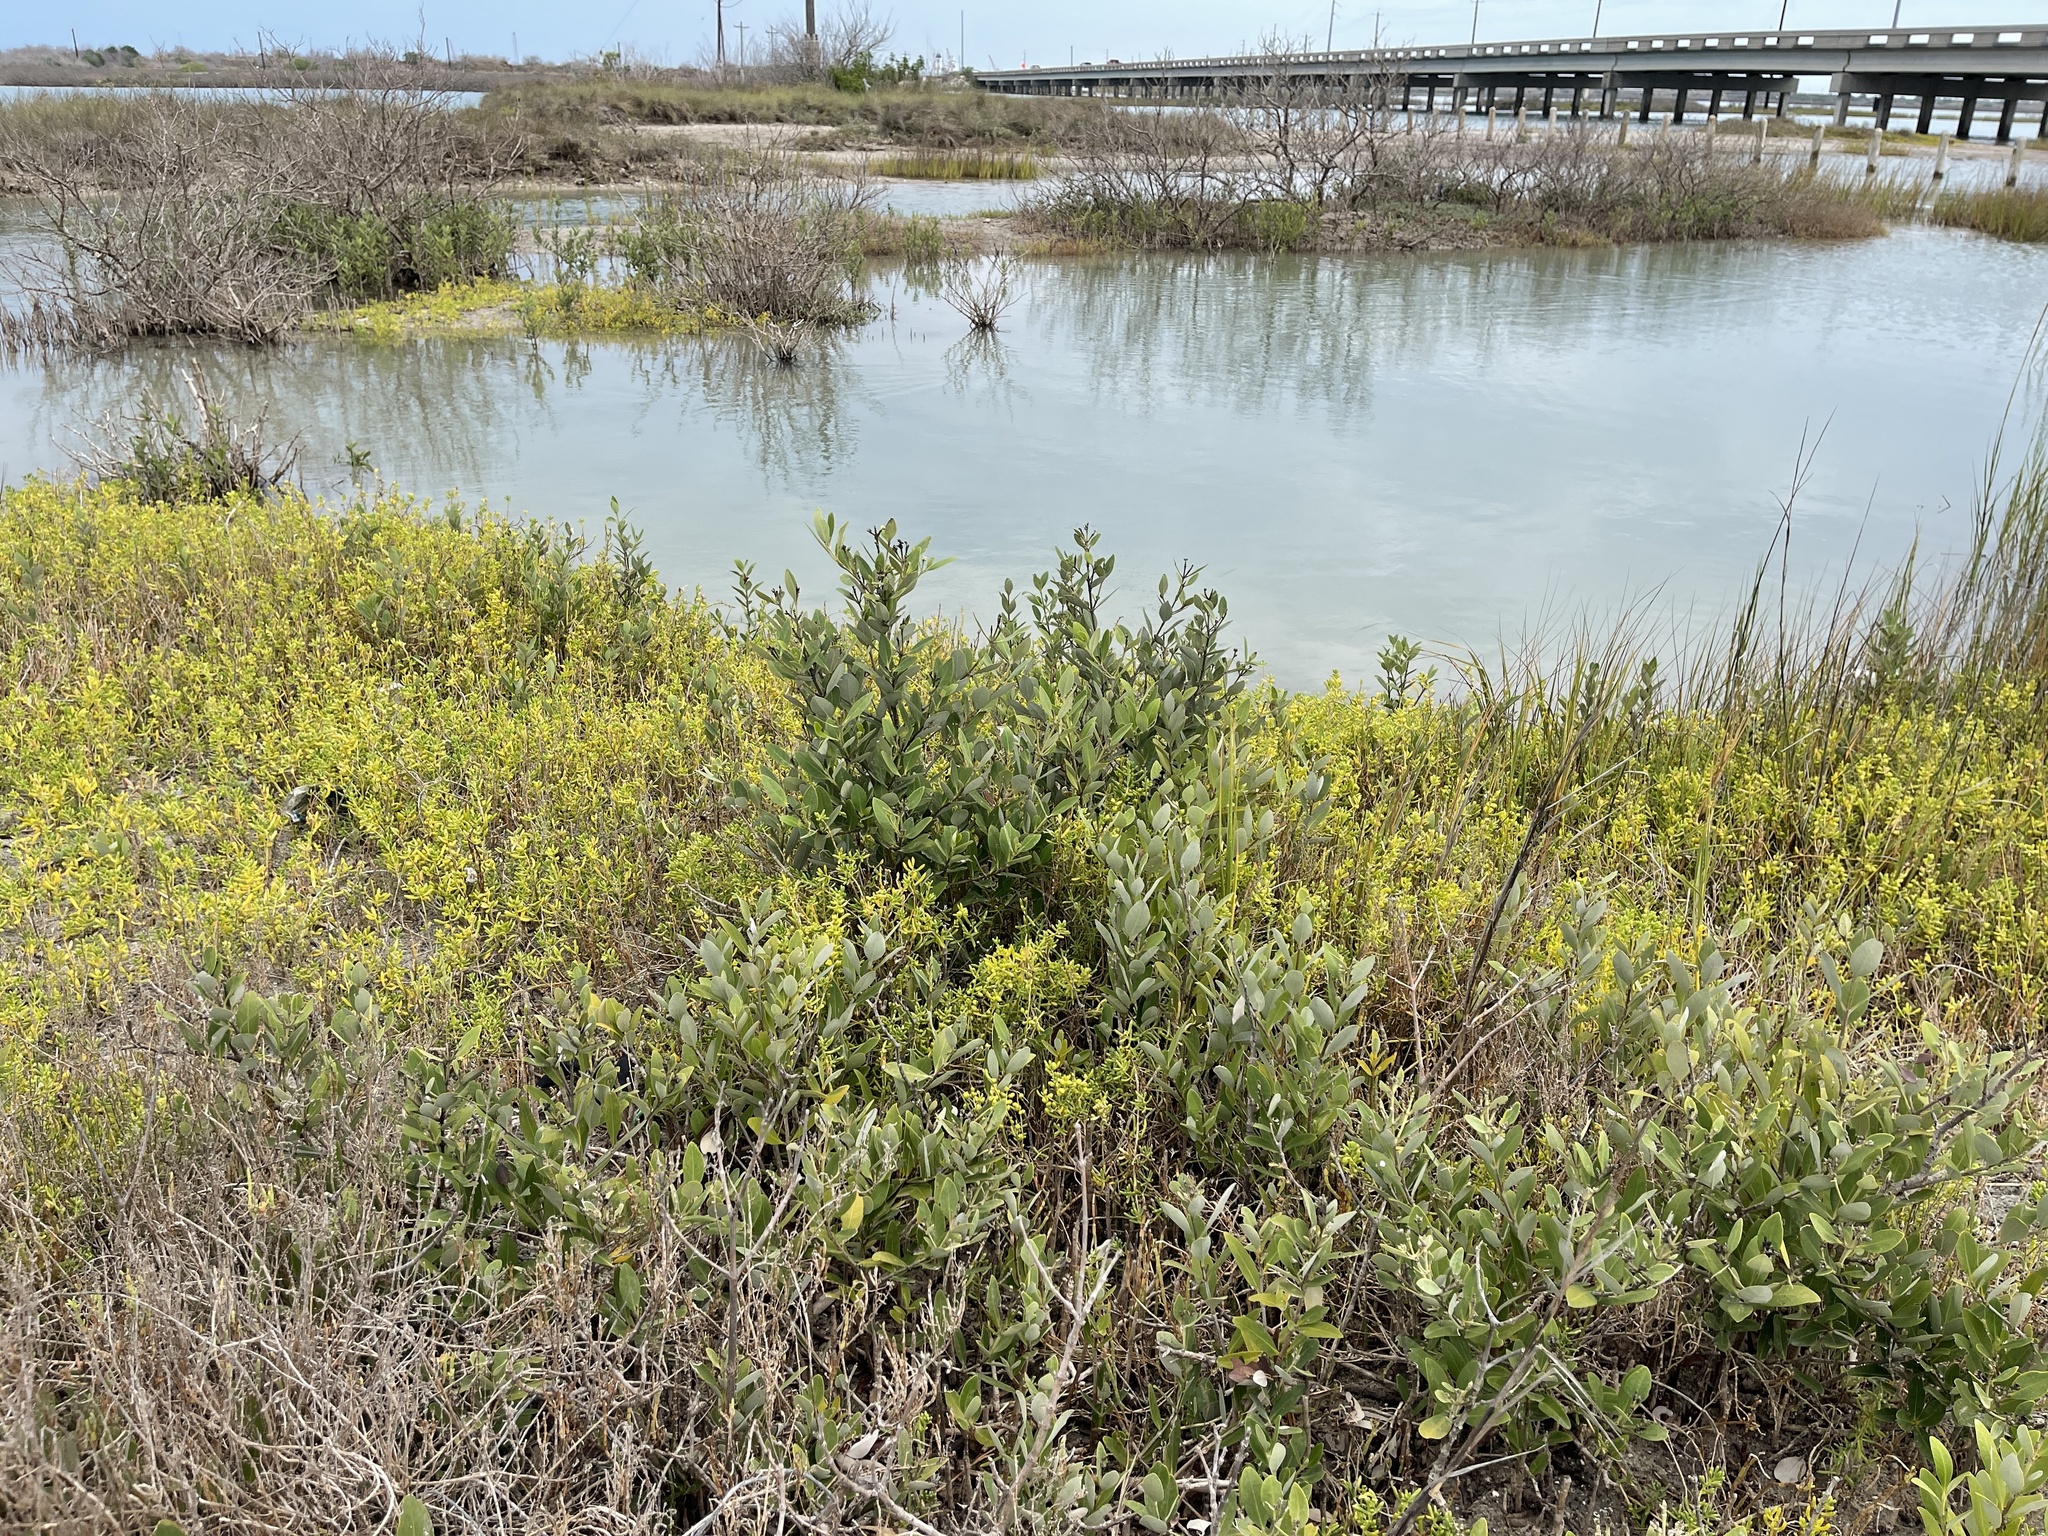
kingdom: Plantae
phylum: Tracheophyta
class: Magnoliopsida
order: Lamiales
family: Acanthaceae
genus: Avicennia
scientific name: Avicennia germinans
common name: Black mangrove
